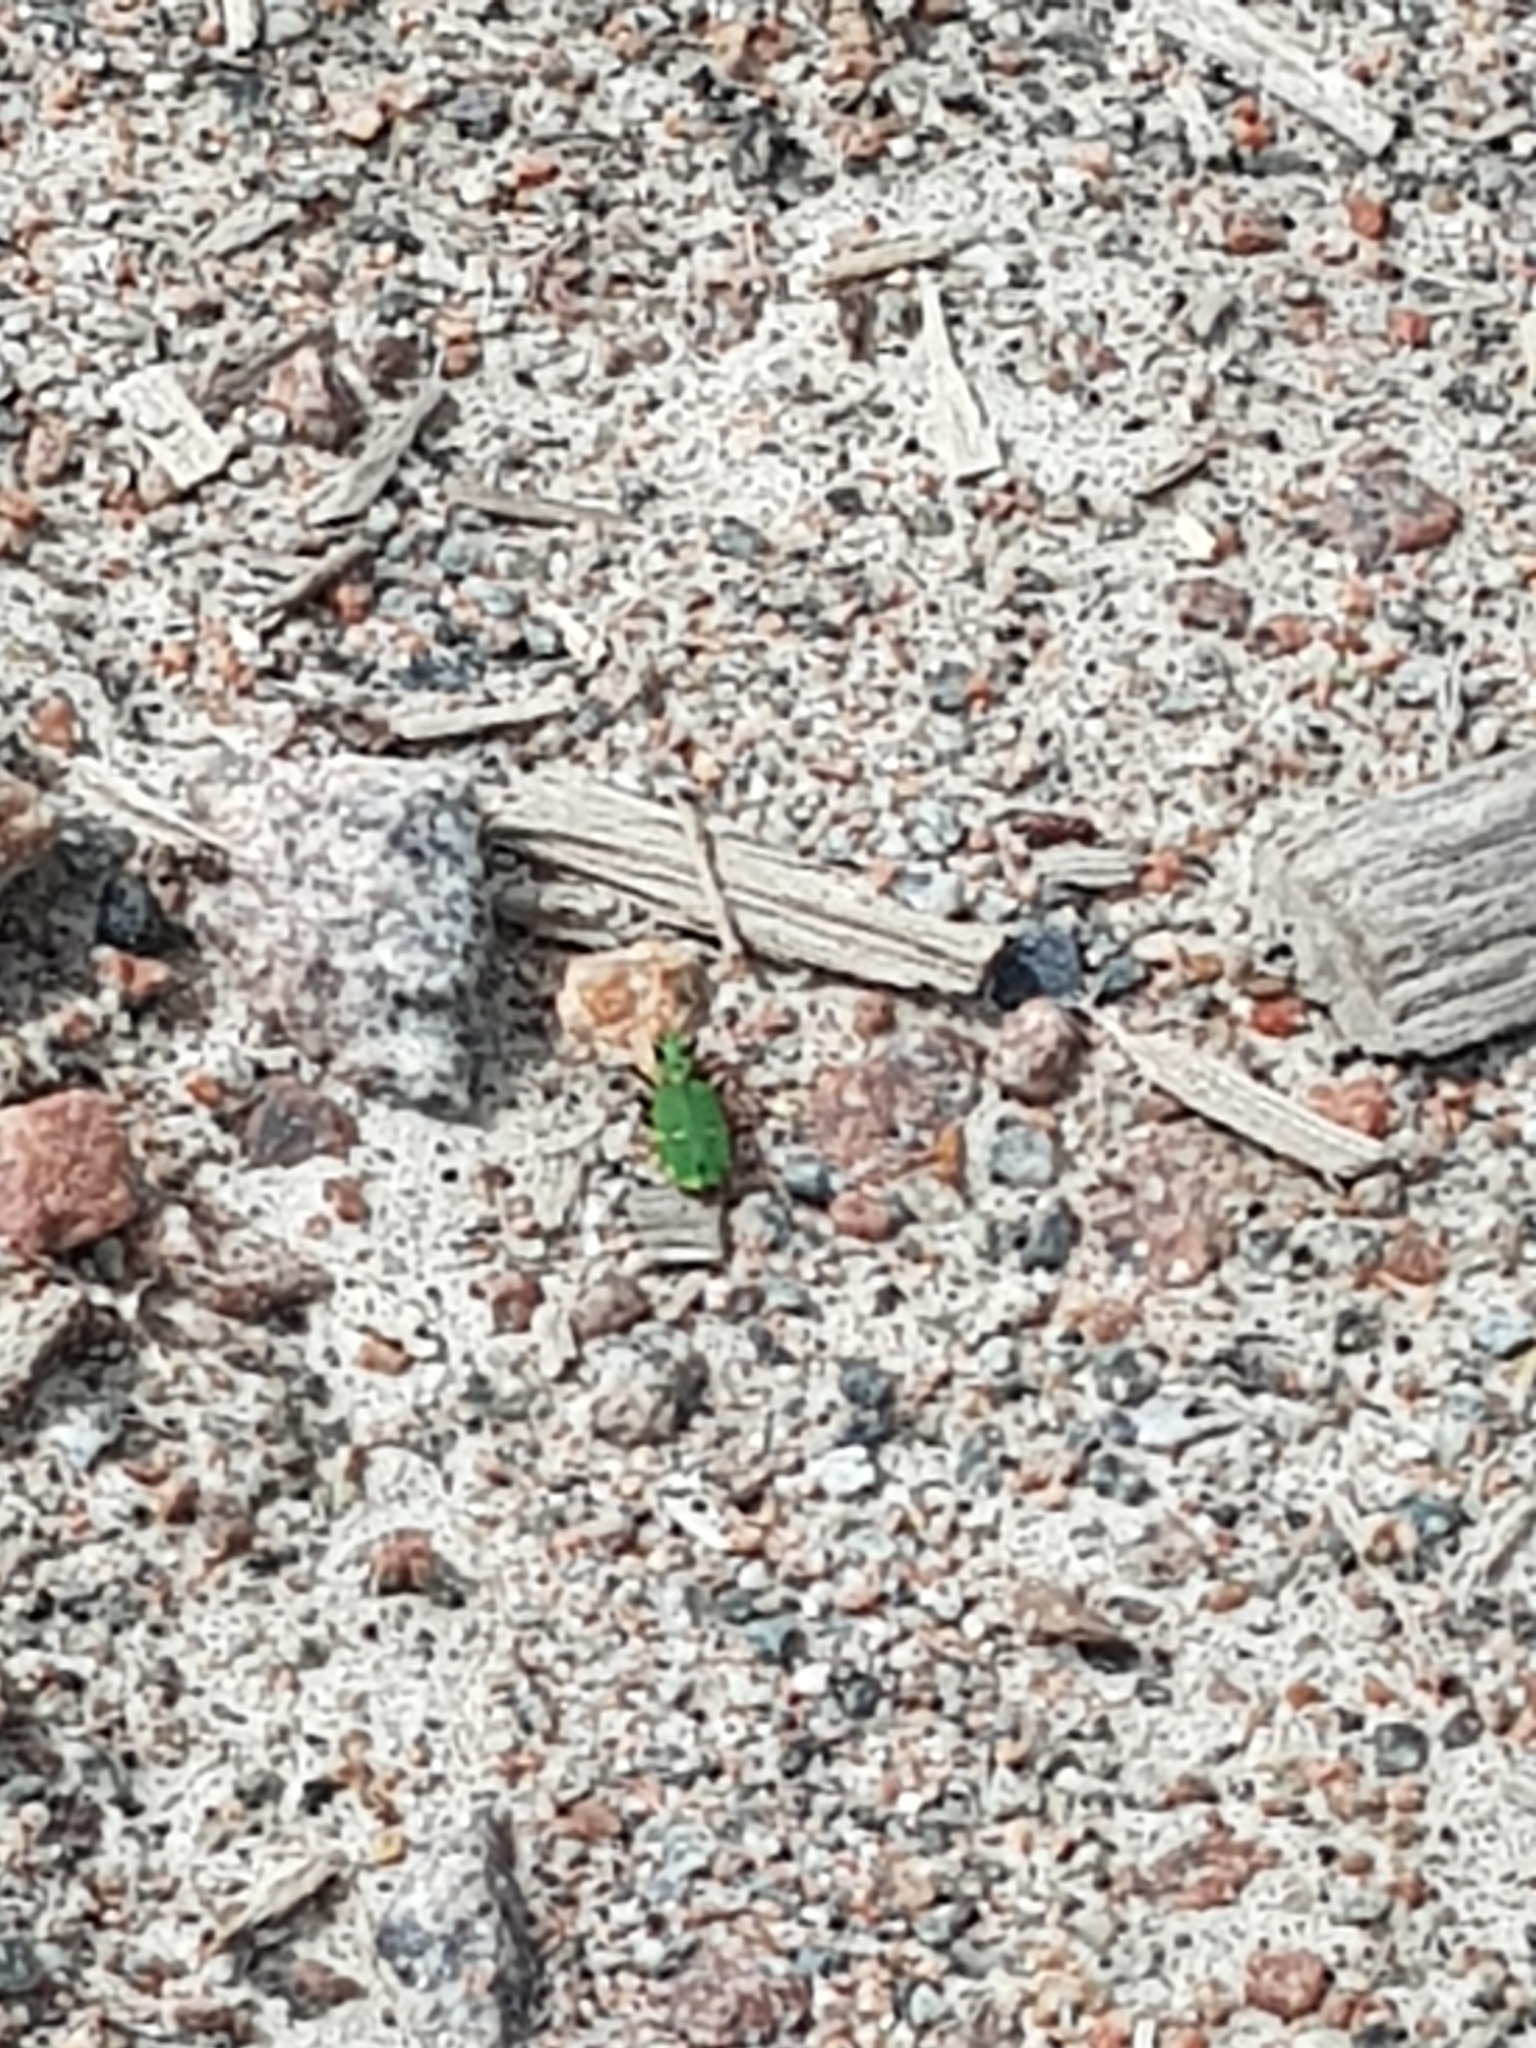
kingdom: Animalia
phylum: Arthropoda
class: Insecta
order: Coleoptera
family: Carabidae
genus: Cicindela
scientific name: Cicindela campestris
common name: Common tiger beetle
